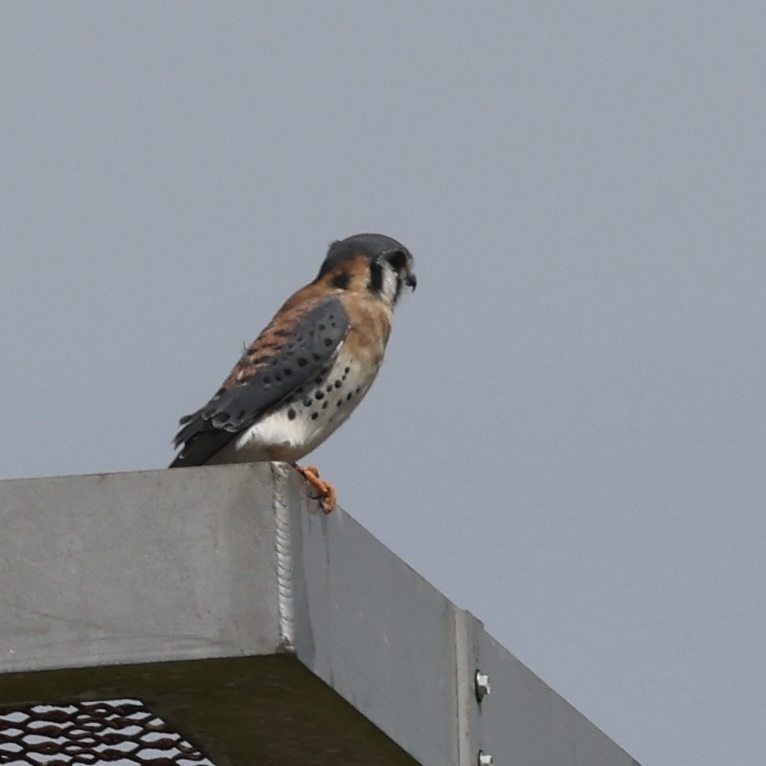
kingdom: Animalia
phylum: Chordata
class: Aves
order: Falconiformes
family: Falconidae
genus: Falco
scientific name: Falco sparverius
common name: American kestrel
